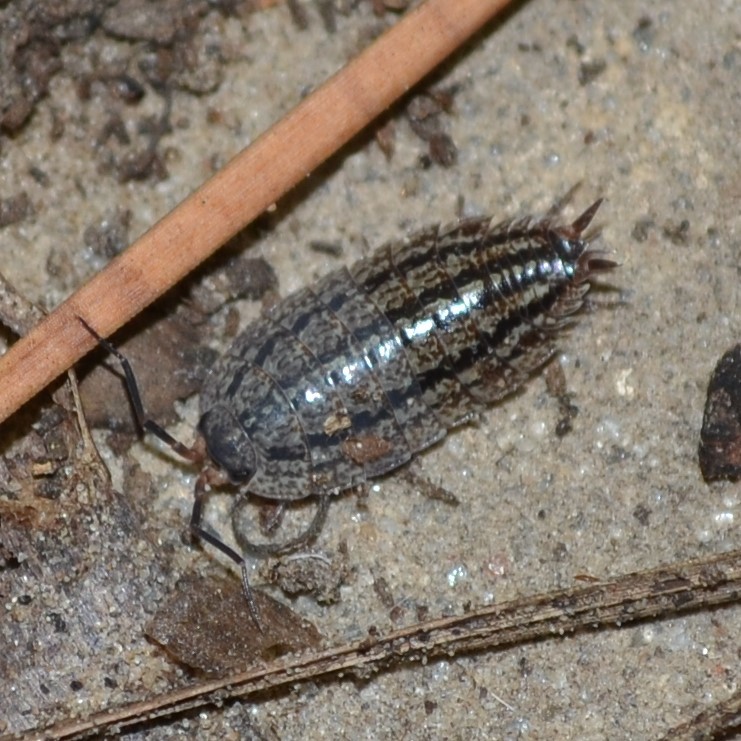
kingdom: Animalia
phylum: Arthropoda
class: Malacostraca
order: Isopoda
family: Porcellionidae
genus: Porcellionides
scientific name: Porcellionides virgatus
